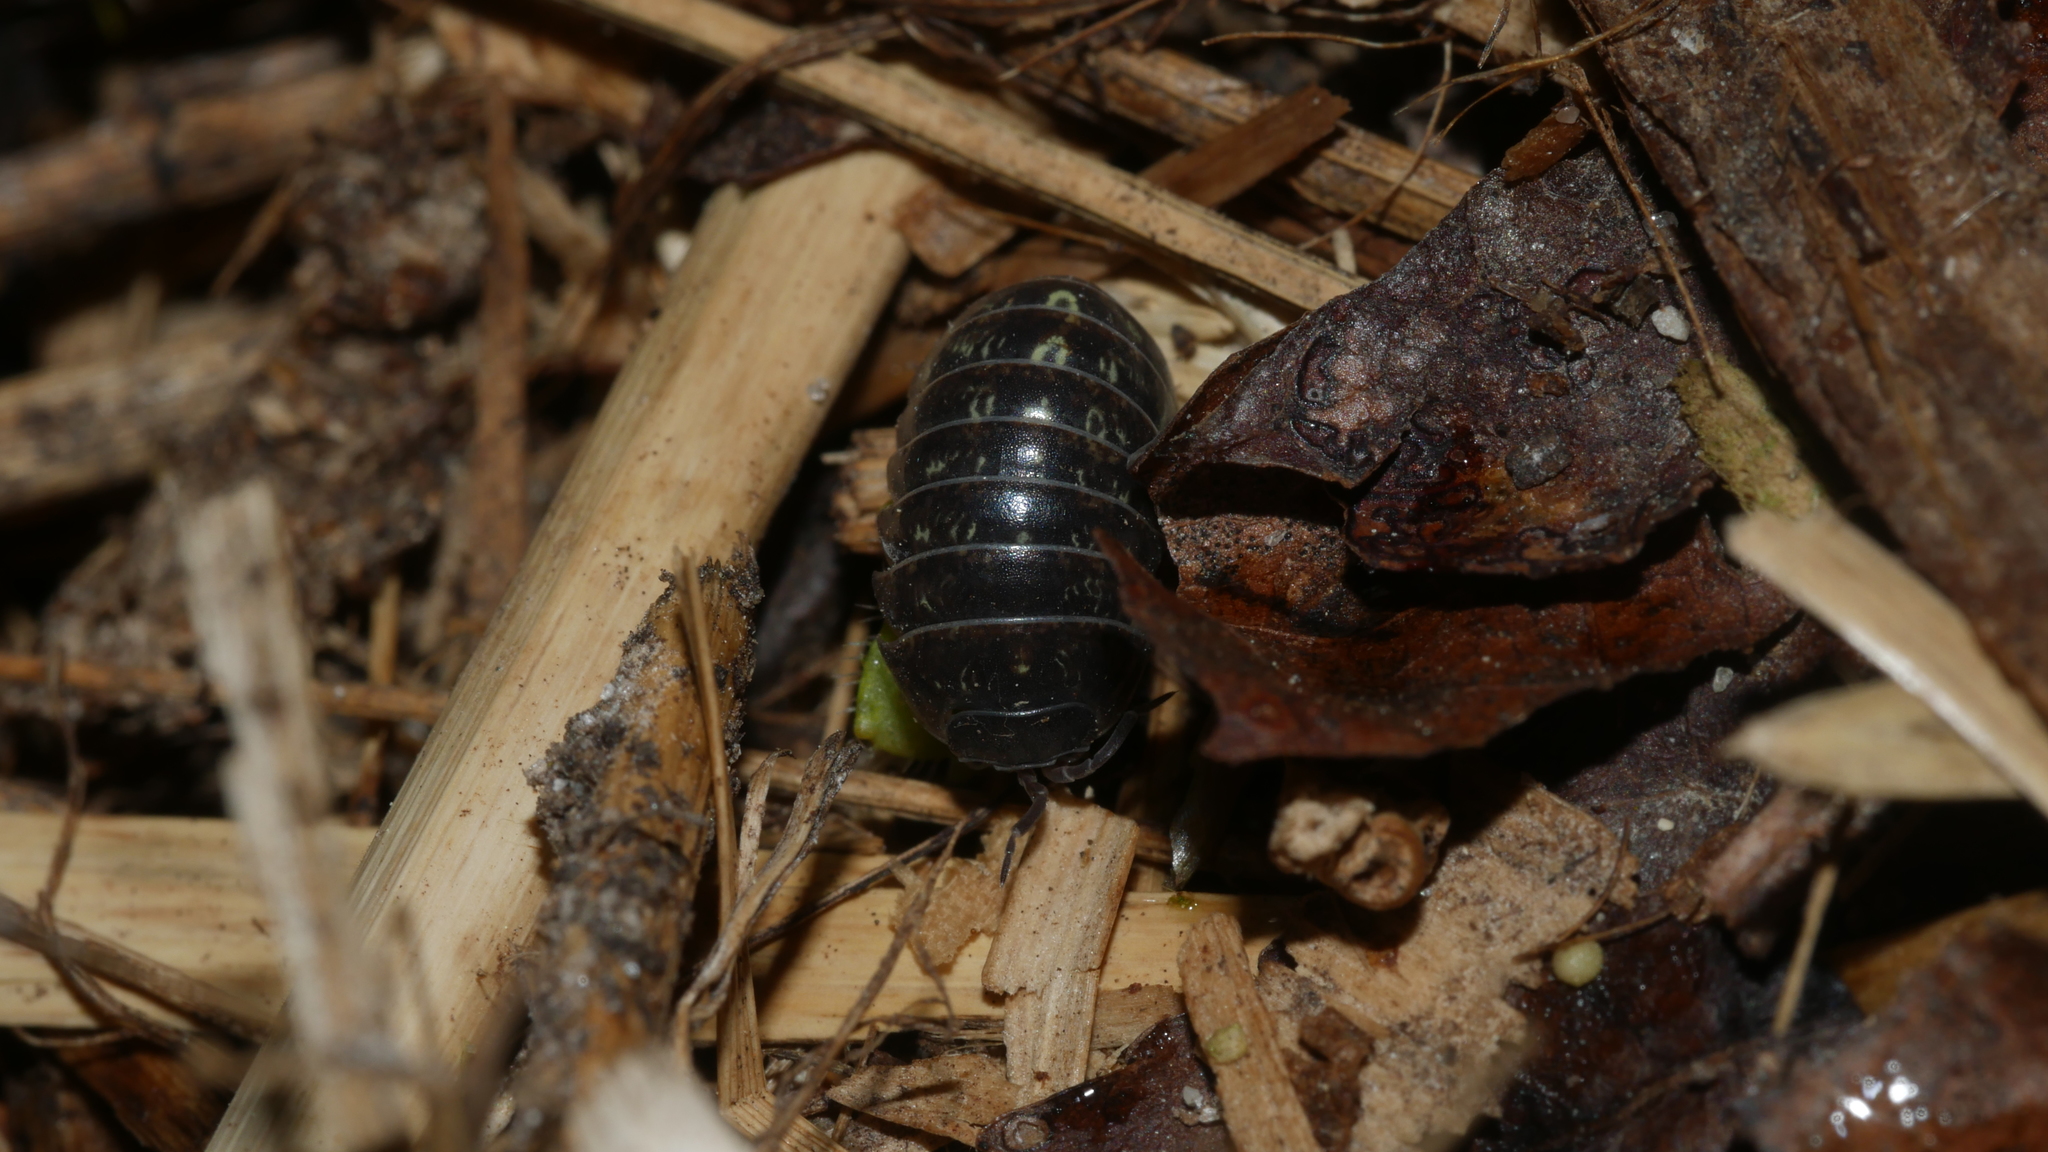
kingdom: Animalia
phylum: Arthropoda
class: Malacostraca
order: Isopoda
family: Armadillidiidae
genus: Armadillidium
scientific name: Armadillidium vulgare
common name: Common pill woodlouse
